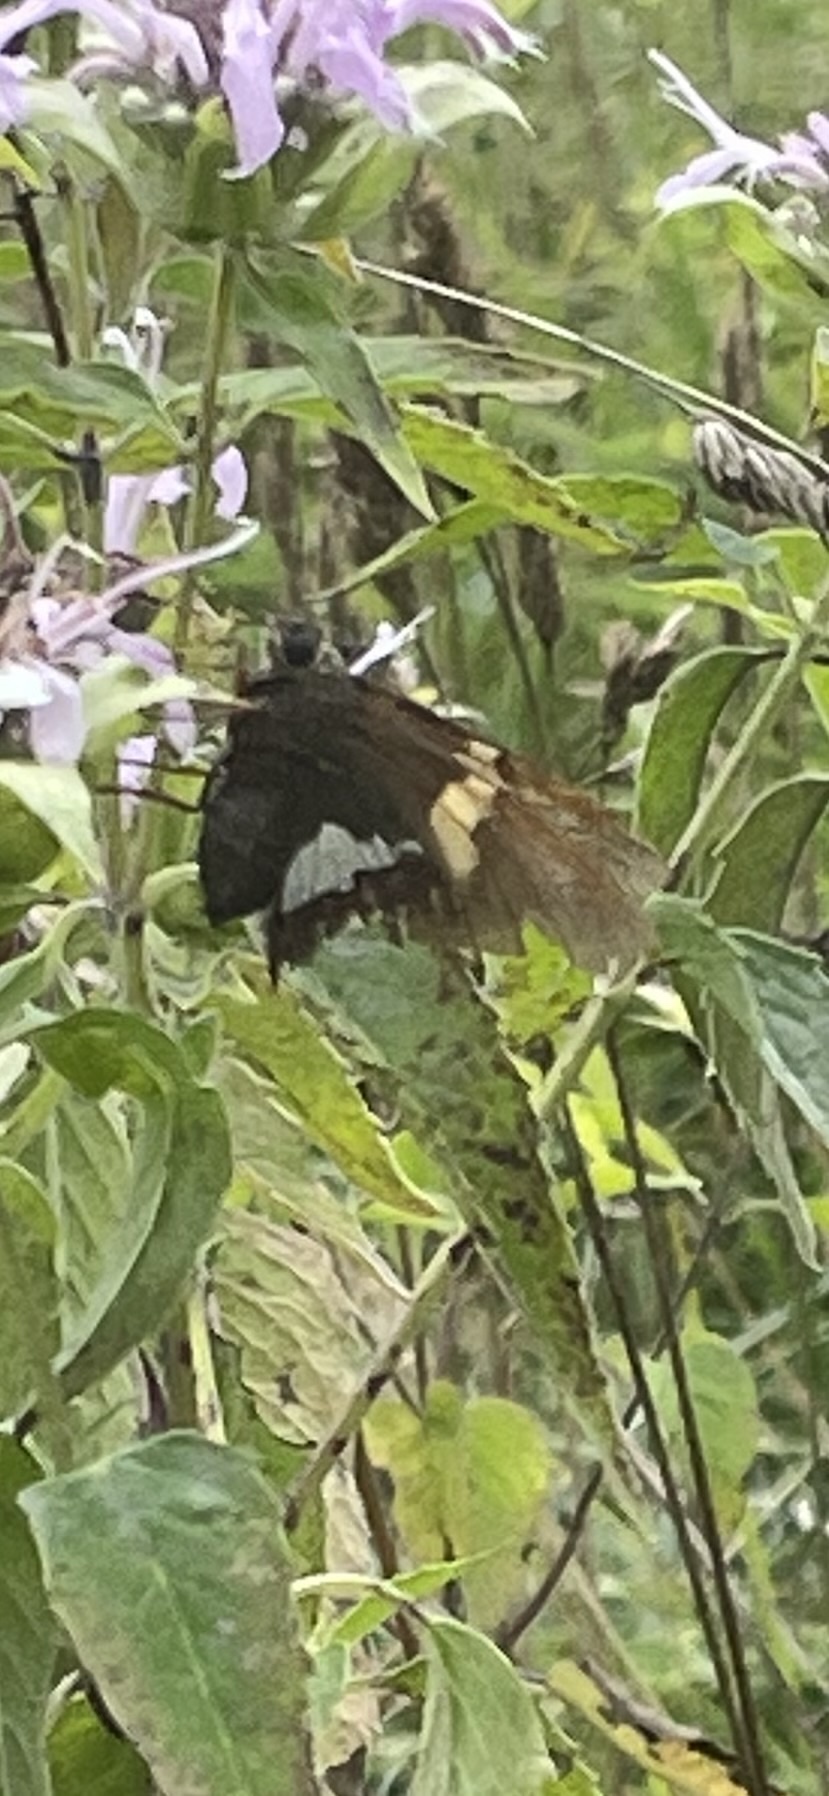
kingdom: Animalia
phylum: Arthropoda
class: Insecta
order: Lepidoptera
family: Hesperiidae
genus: Epargyreus
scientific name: Epargyreus clarus
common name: Silver-spotted skipper
